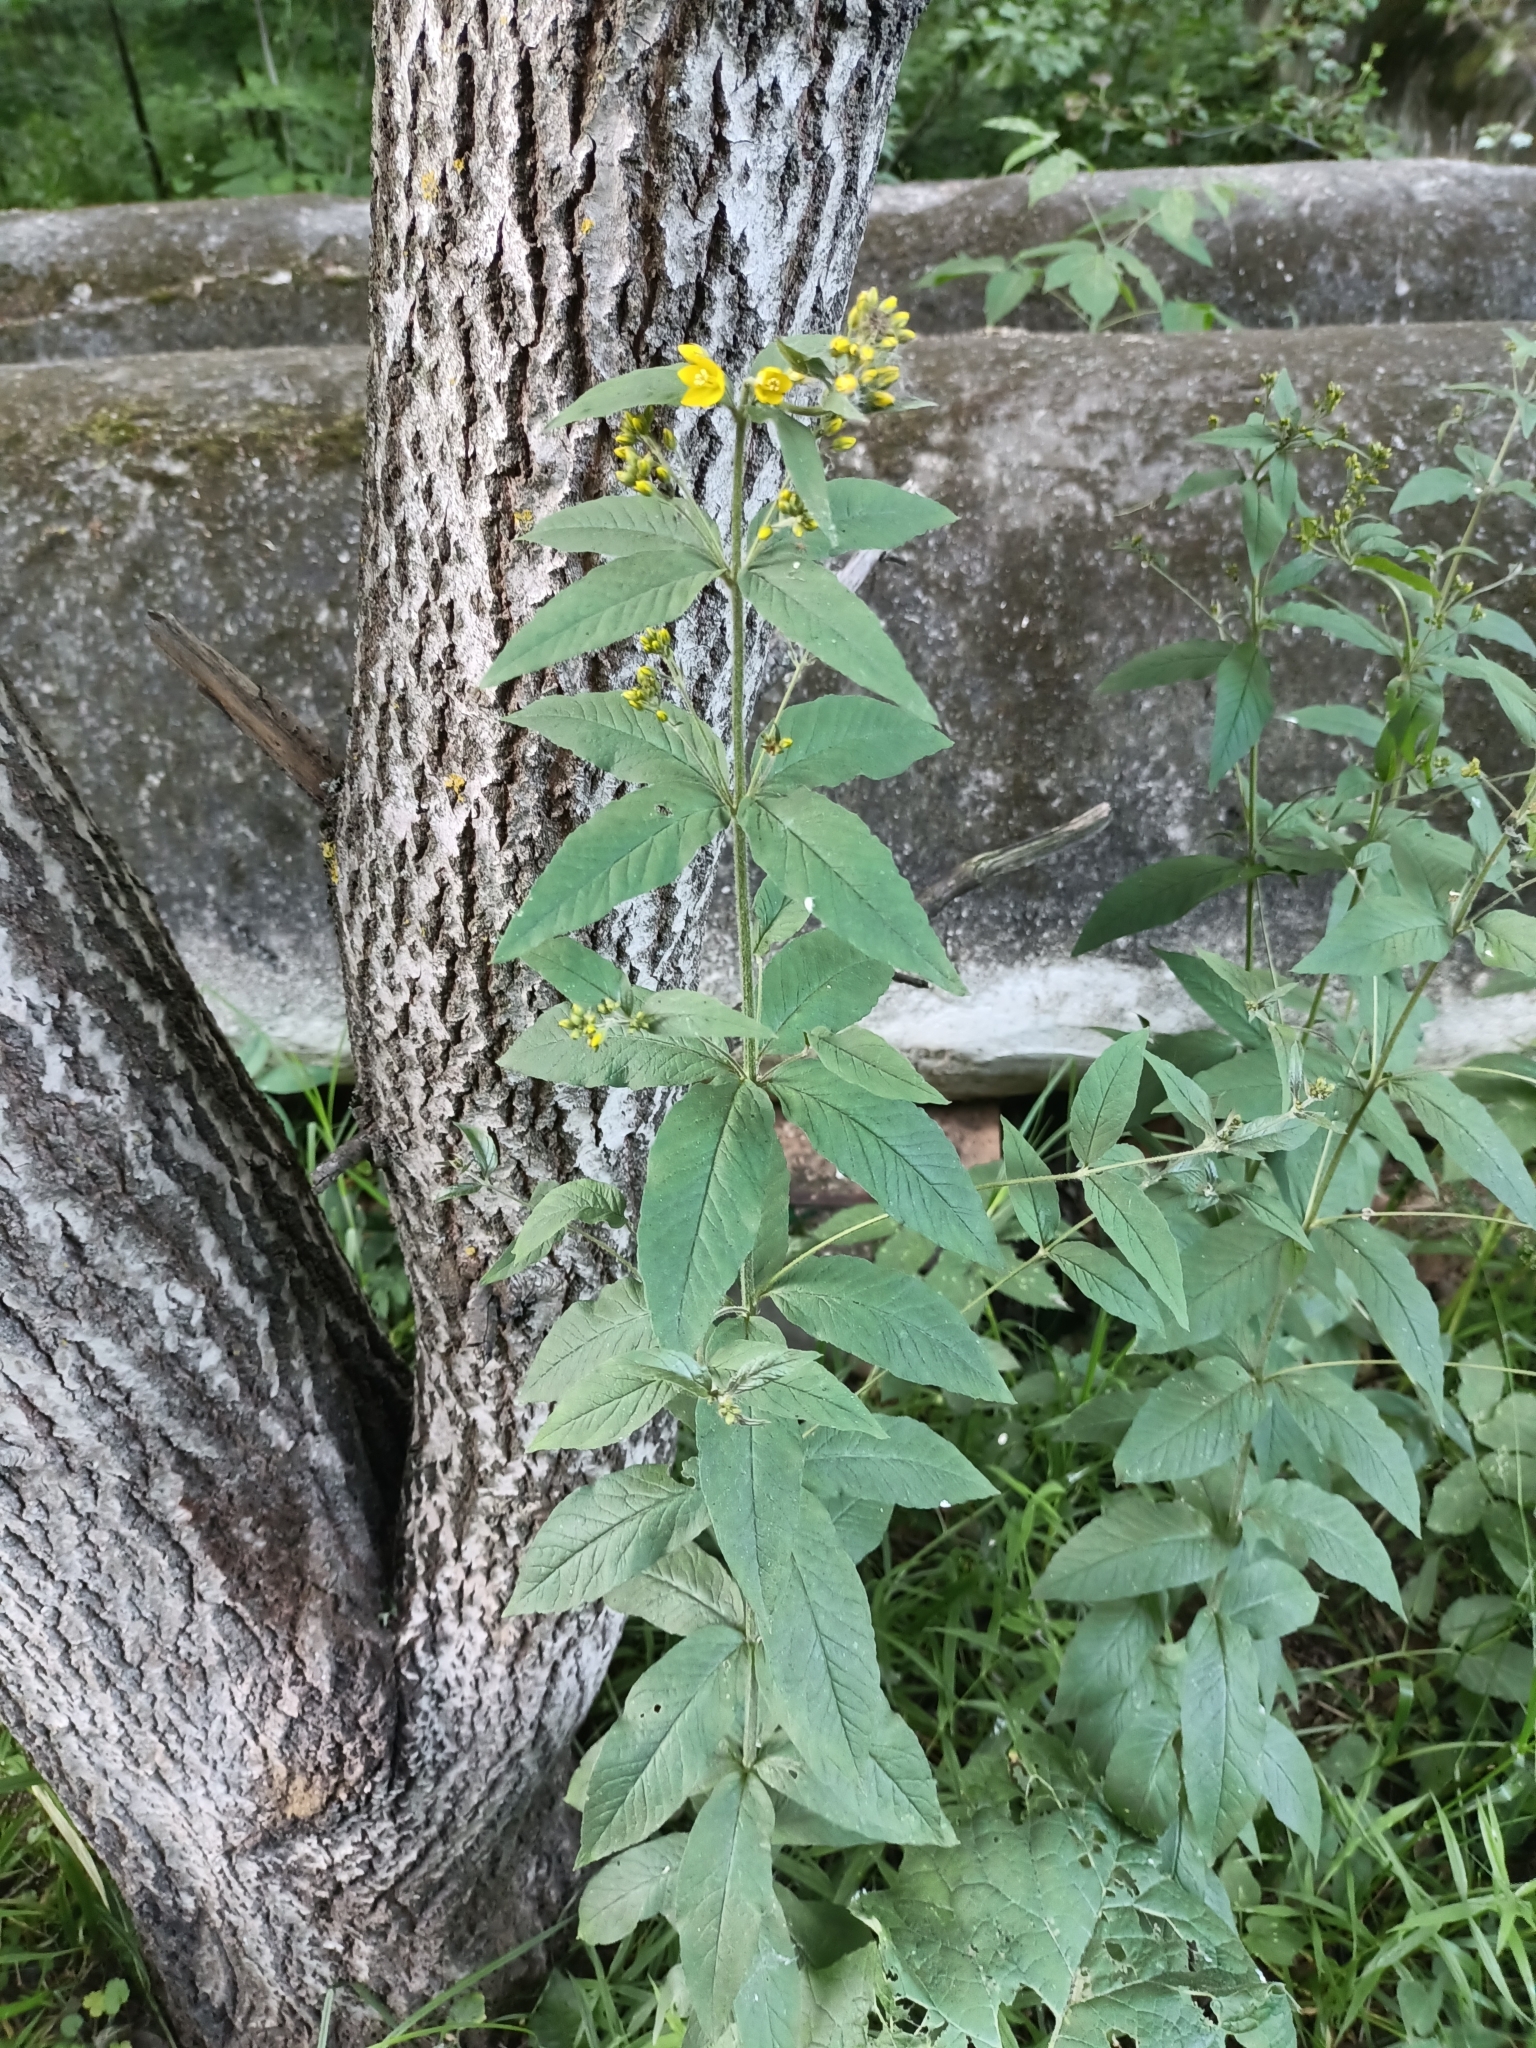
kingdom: Plantae
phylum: Tracheophyta
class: Magnoliopsida
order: Ericales
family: Primulaceae
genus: Lysimachia
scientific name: Lysimachia vulgaris
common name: Yellow loosestrife
